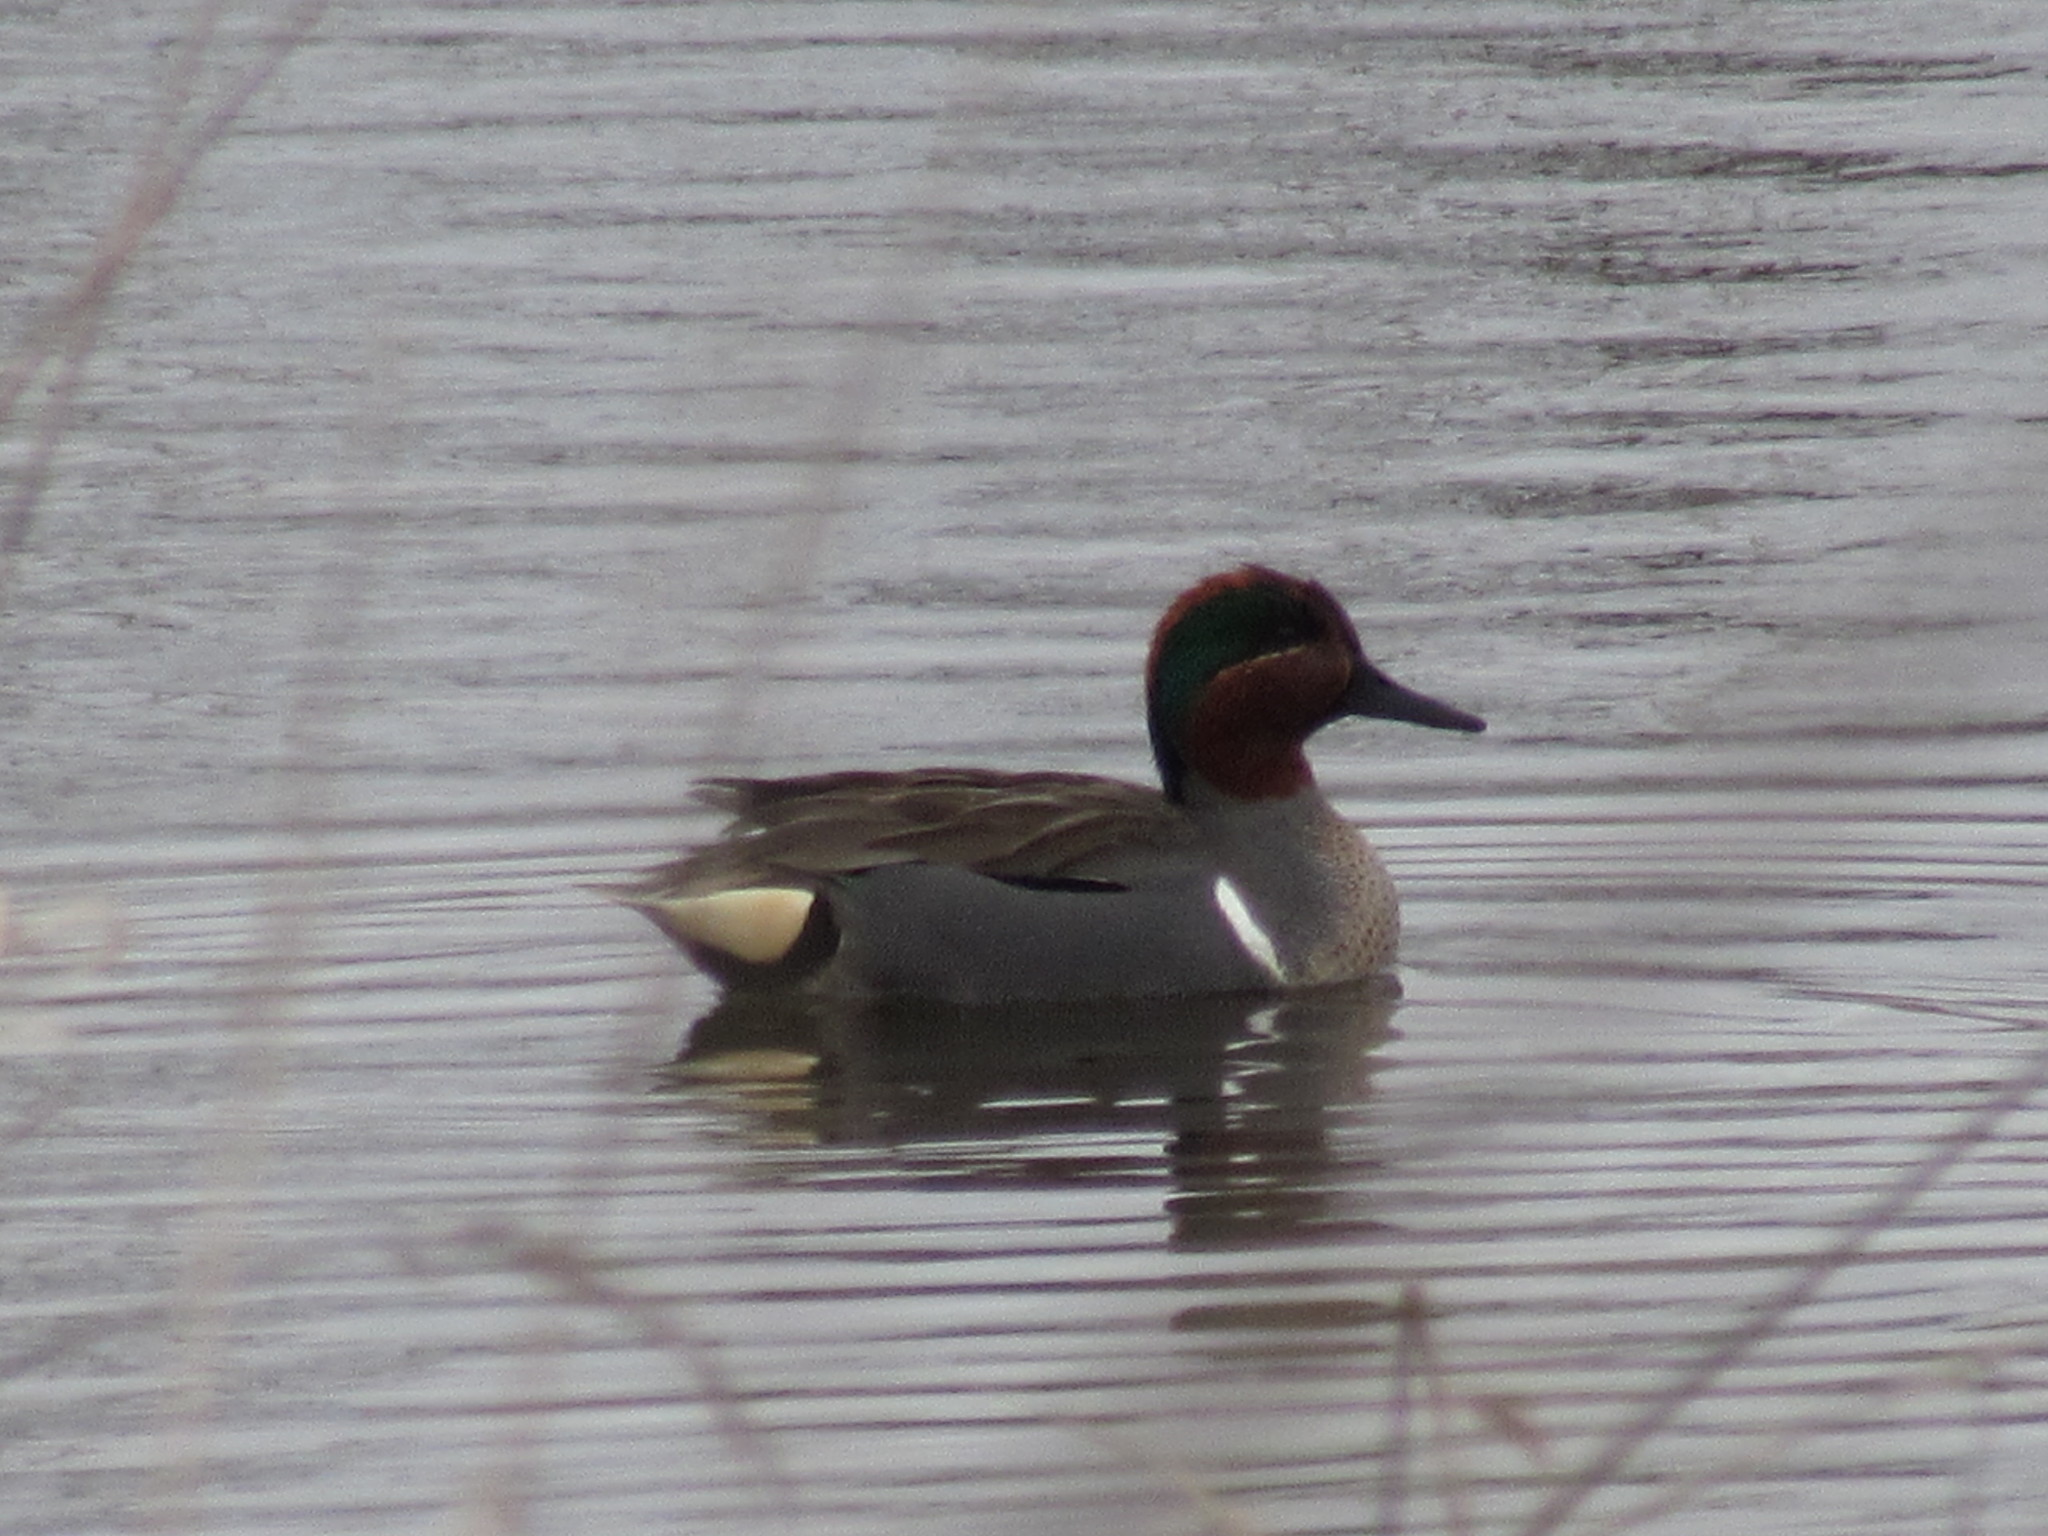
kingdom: Animalia
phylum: Chordata
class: Aves
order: Anseriformes
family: Anatidae
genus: Anas
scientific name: Anas crecca
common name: Eurasian teal
